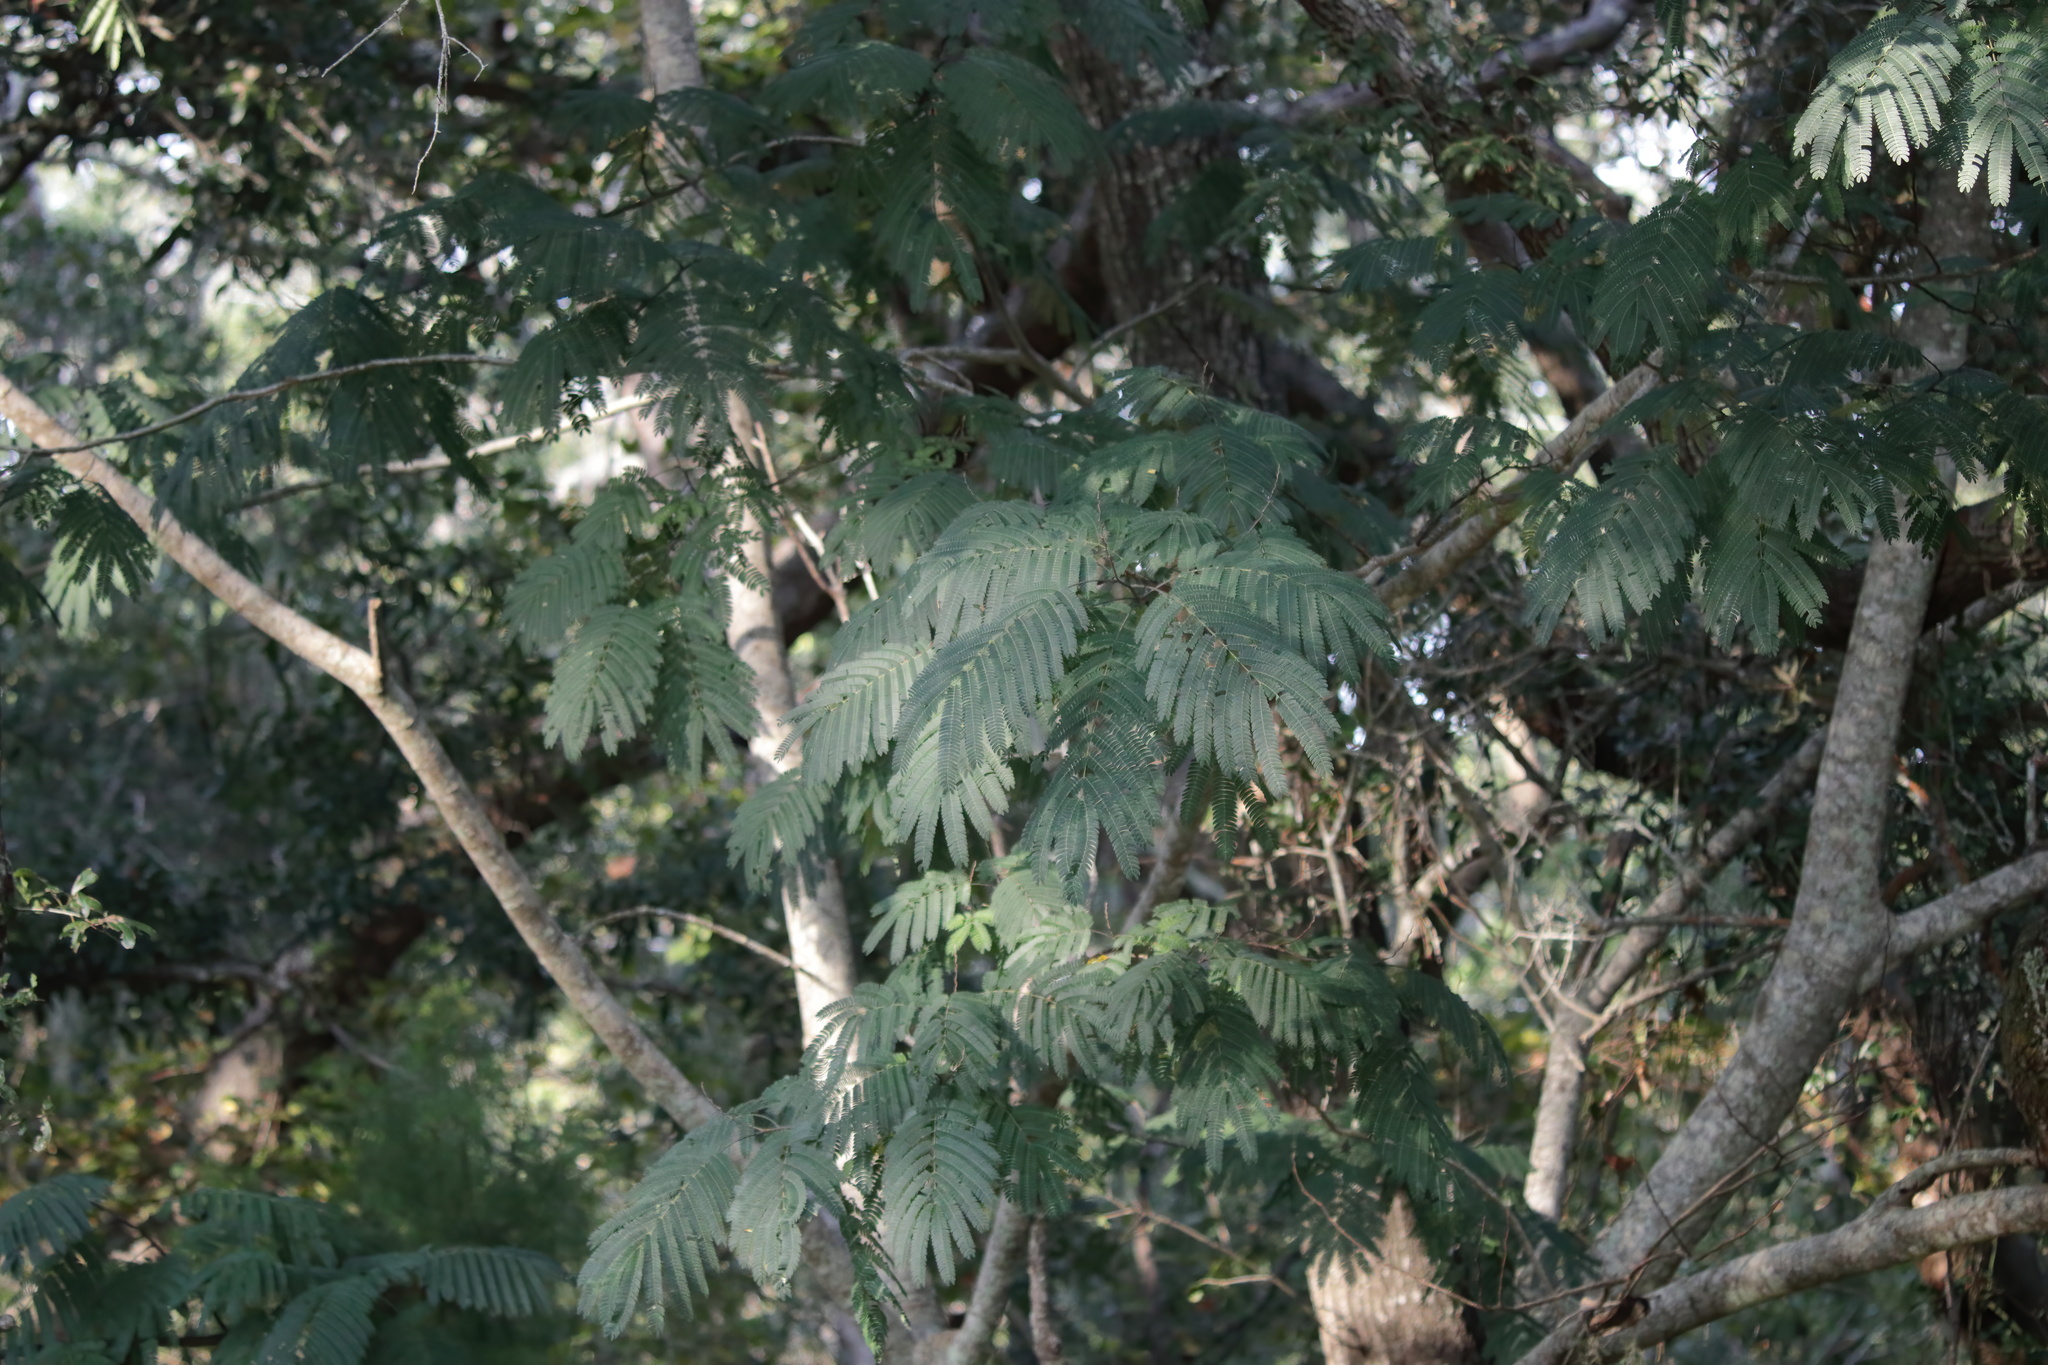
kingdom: Plantae
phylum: Tracheophyta
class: Magnoliopsida
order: Fabales
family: Fabaceae
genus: Albizia
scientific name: Albizia julibrissin
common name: Silktree
